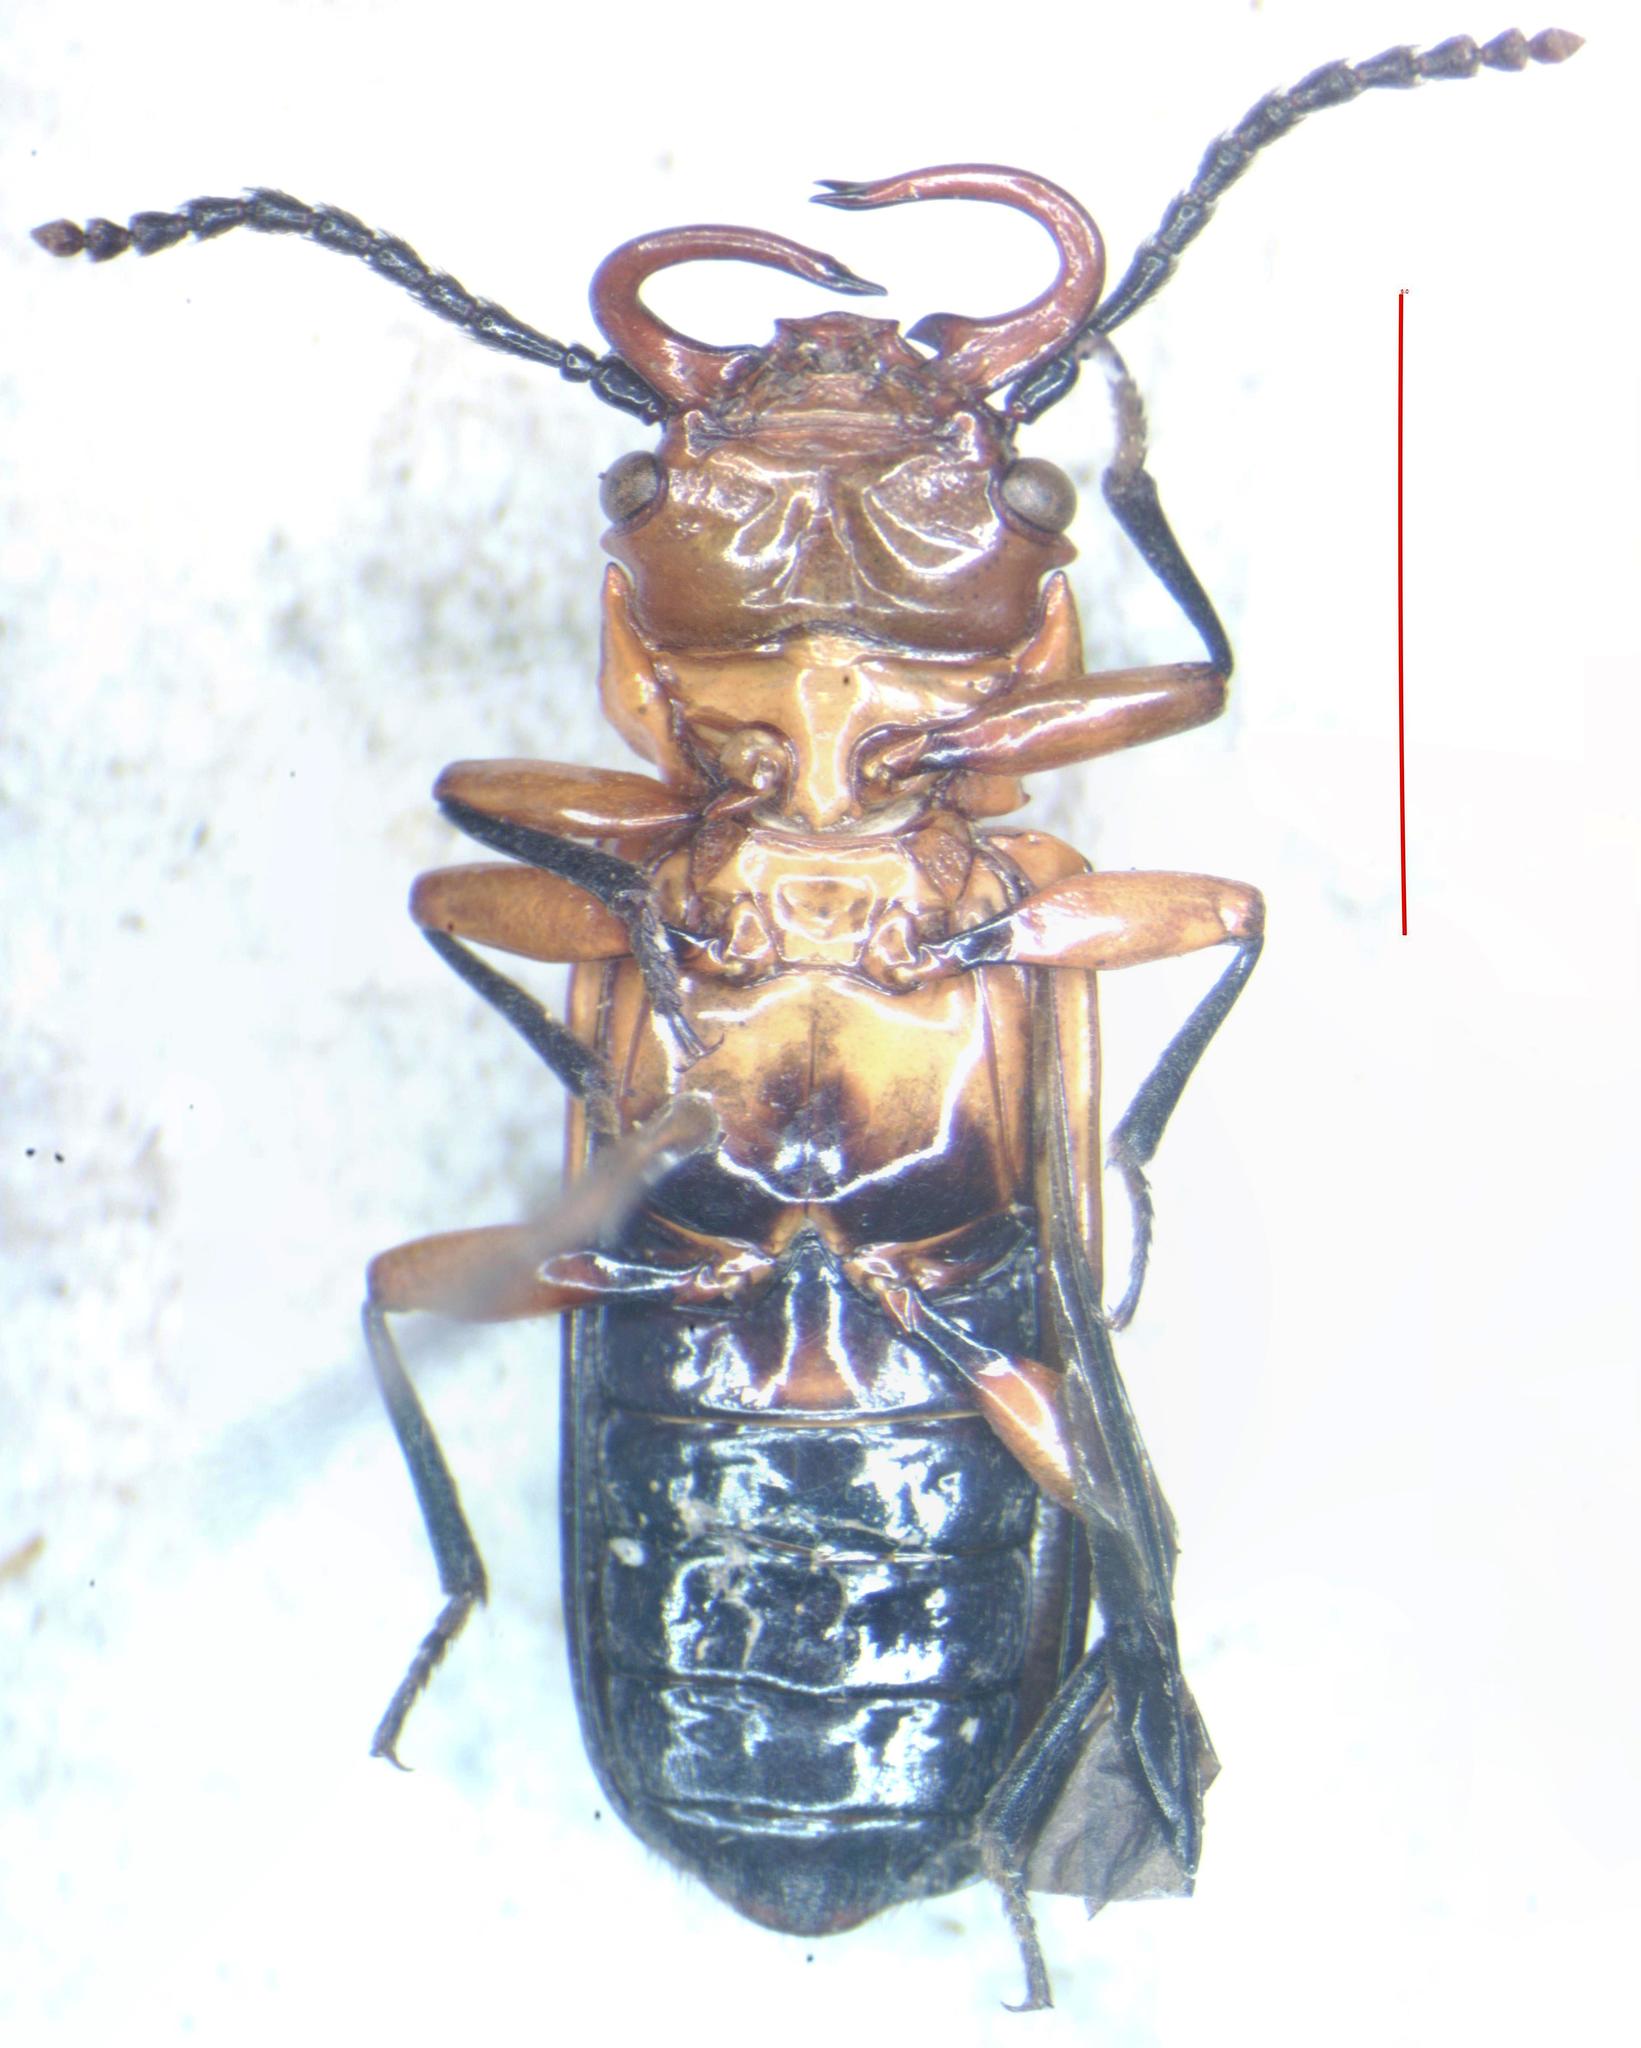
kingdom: Animalia
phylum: Arthropoda
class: Insecta
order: Coleoptera
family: Cucujidae
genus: Palaestes
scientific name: Palaestes
